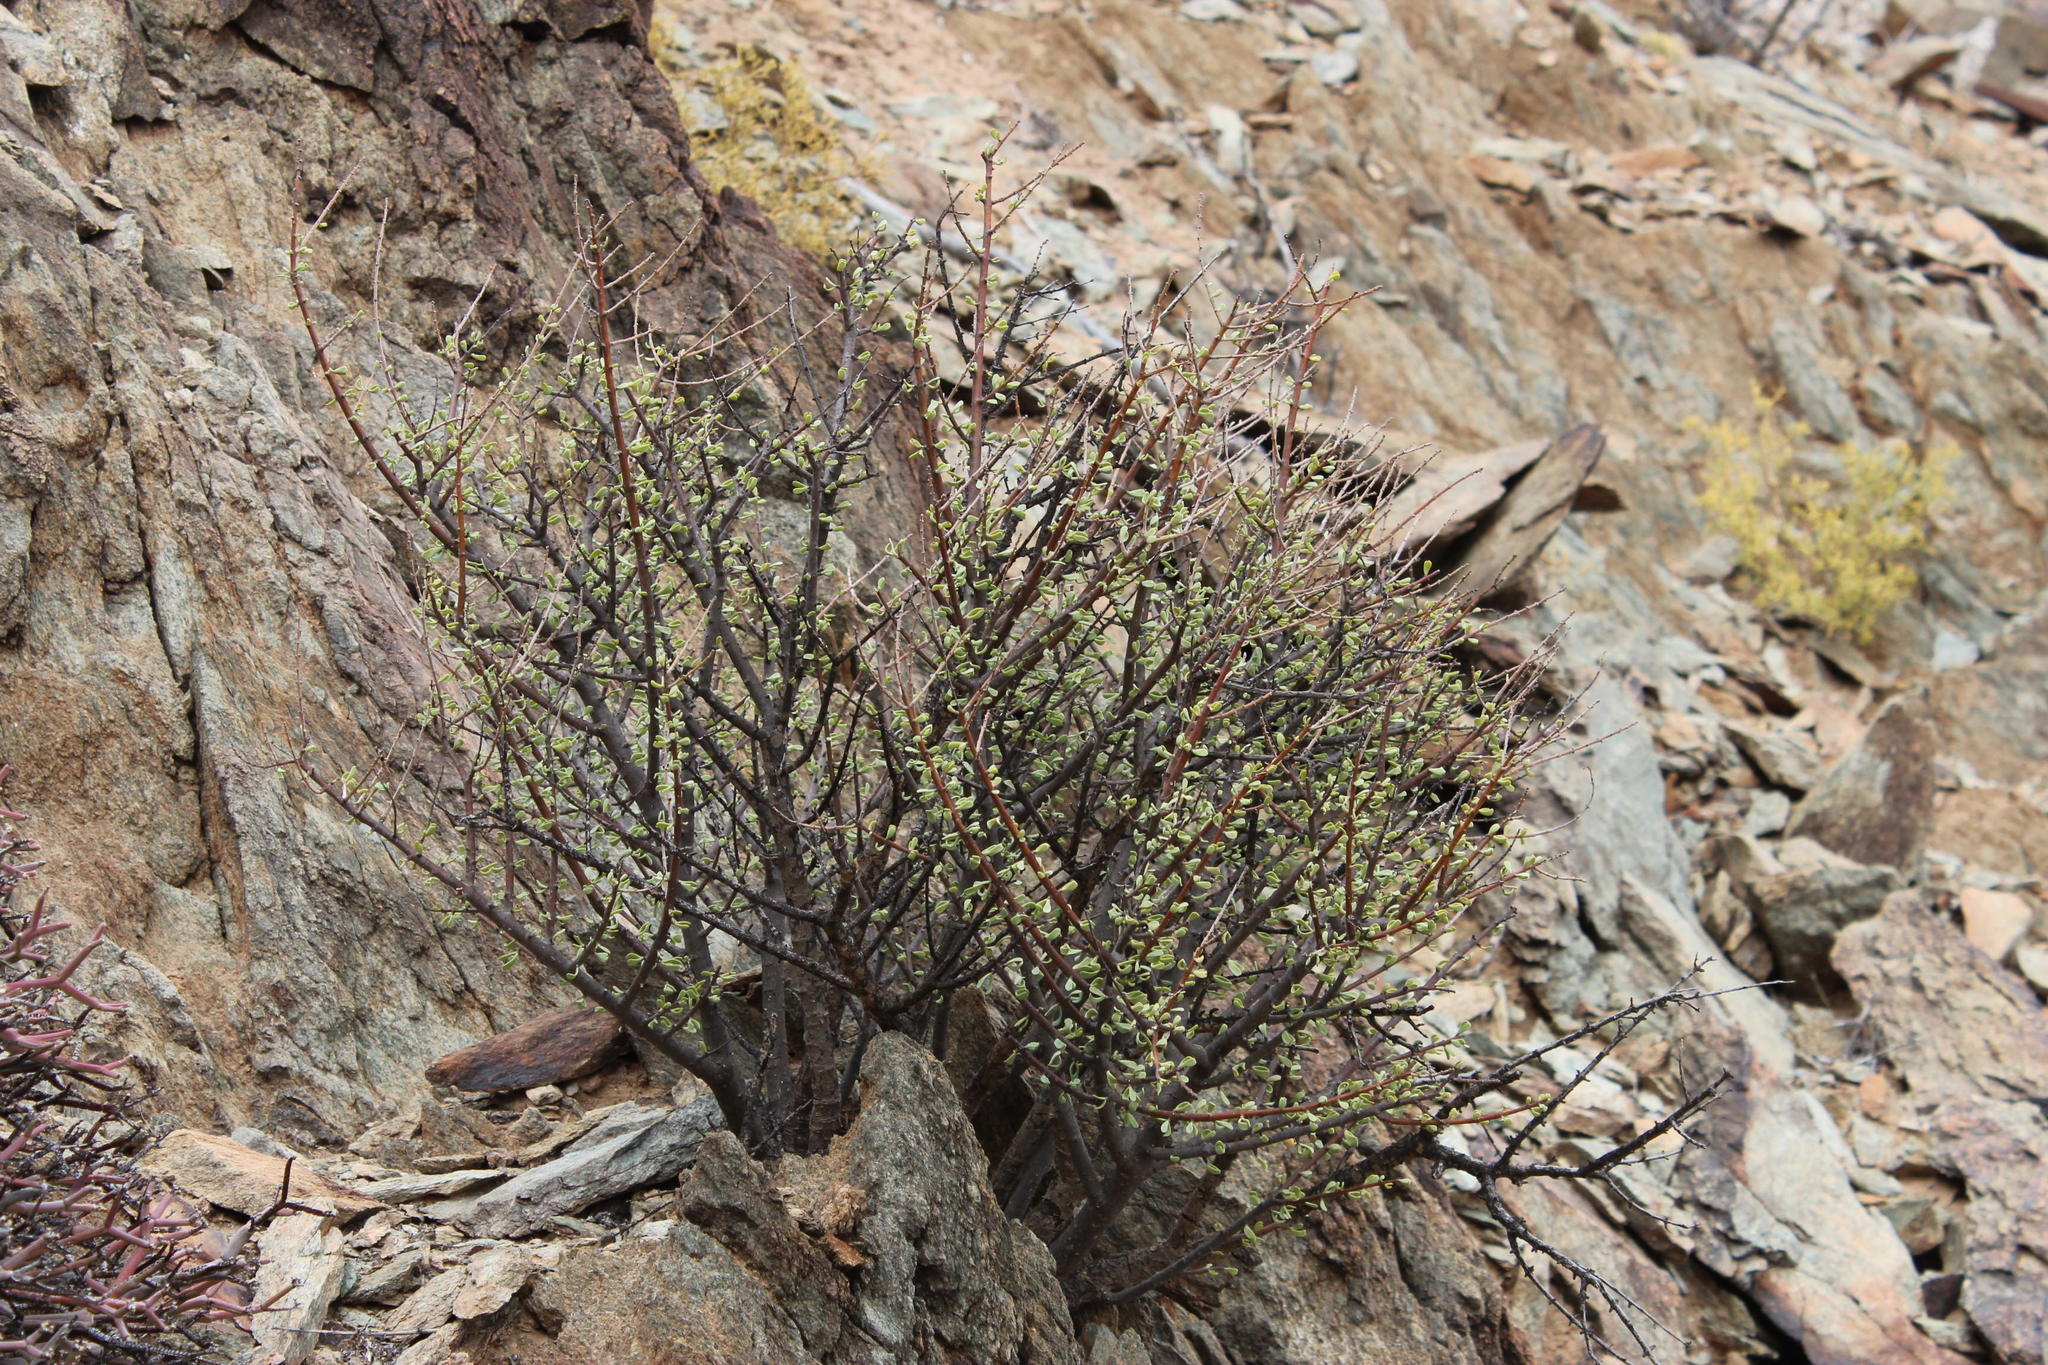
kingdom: Plantae
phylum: Tracheophyta
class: Magnoliopsida
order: Caryophyllales
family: Didiereaceae
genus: Portulacaria
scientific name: Portulacaria fruticulosa
